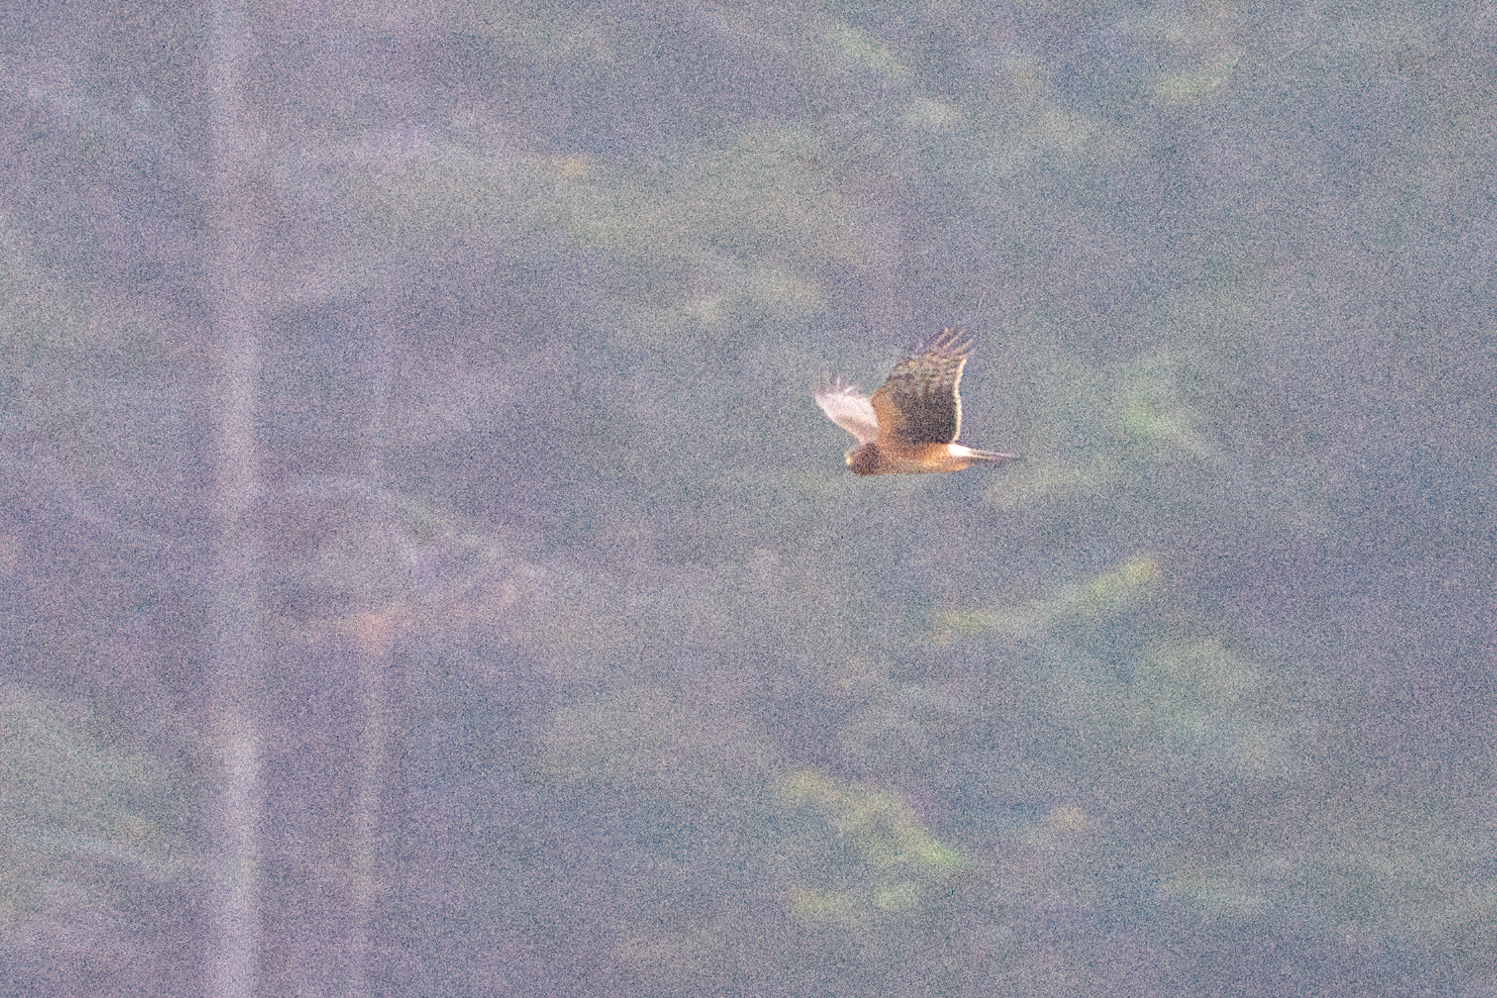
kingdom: Animalia
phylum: Chordata
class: Aves
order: Accipitriformes
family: Accipitridae
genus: Circus
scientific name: Circus cyaneus
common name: Hen harrier
